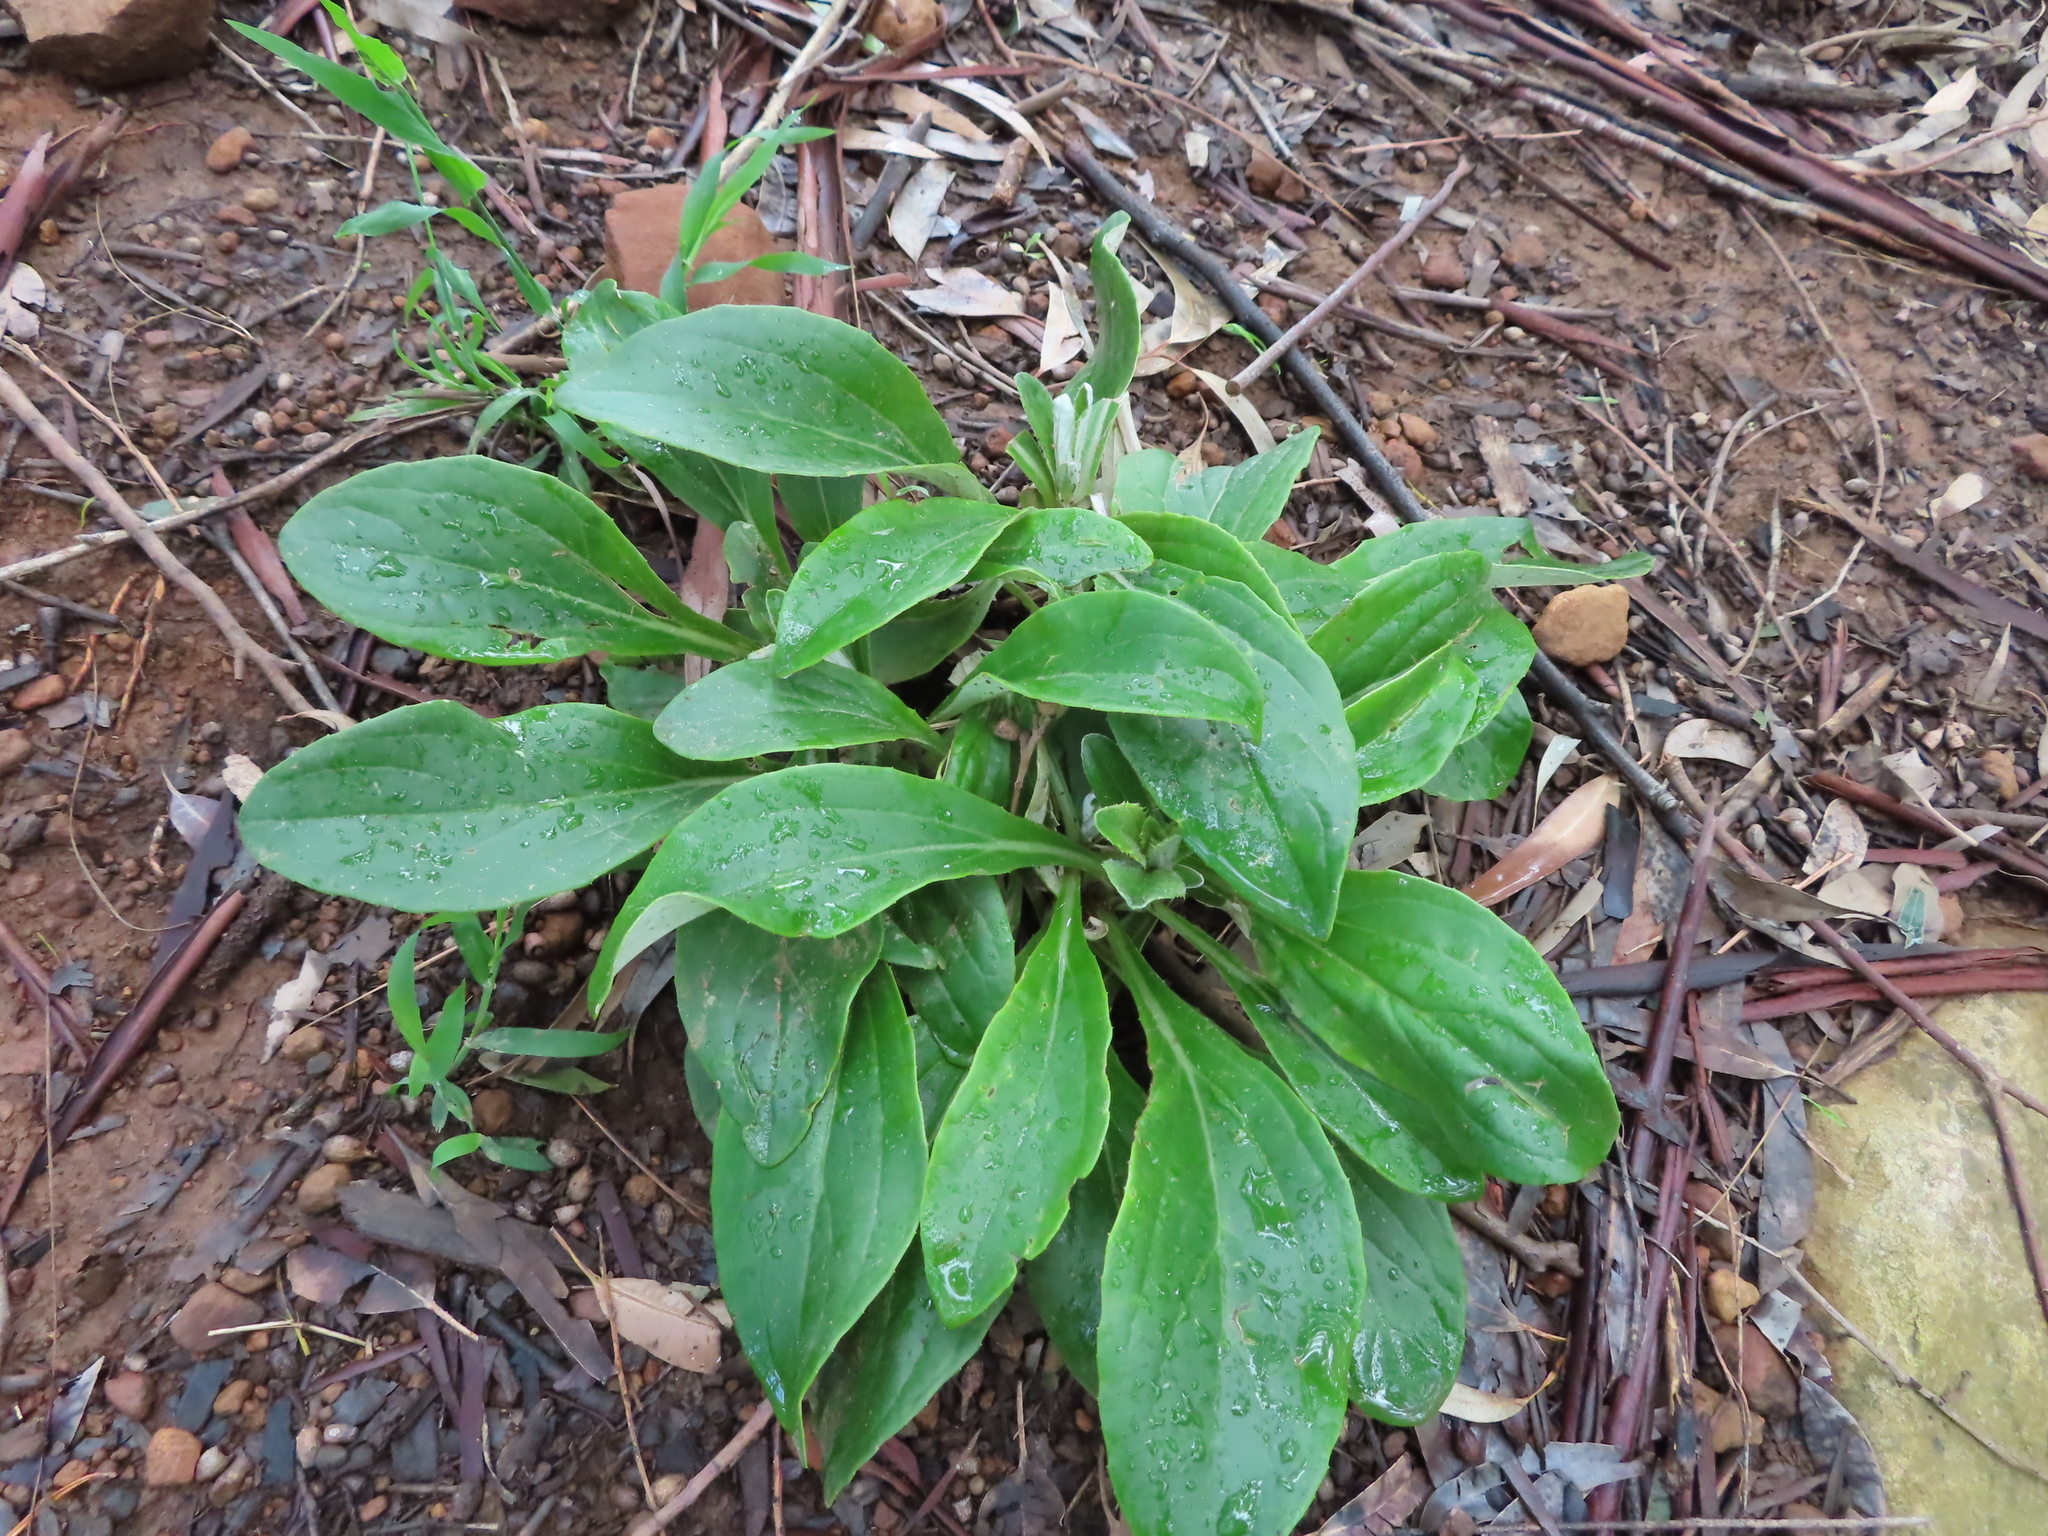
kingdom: Plantae
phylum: Tracheophyta
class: Magnoliopsida
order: Asterales
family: Asteraceae
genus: Berkheya
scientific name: Berkheya herbacea
